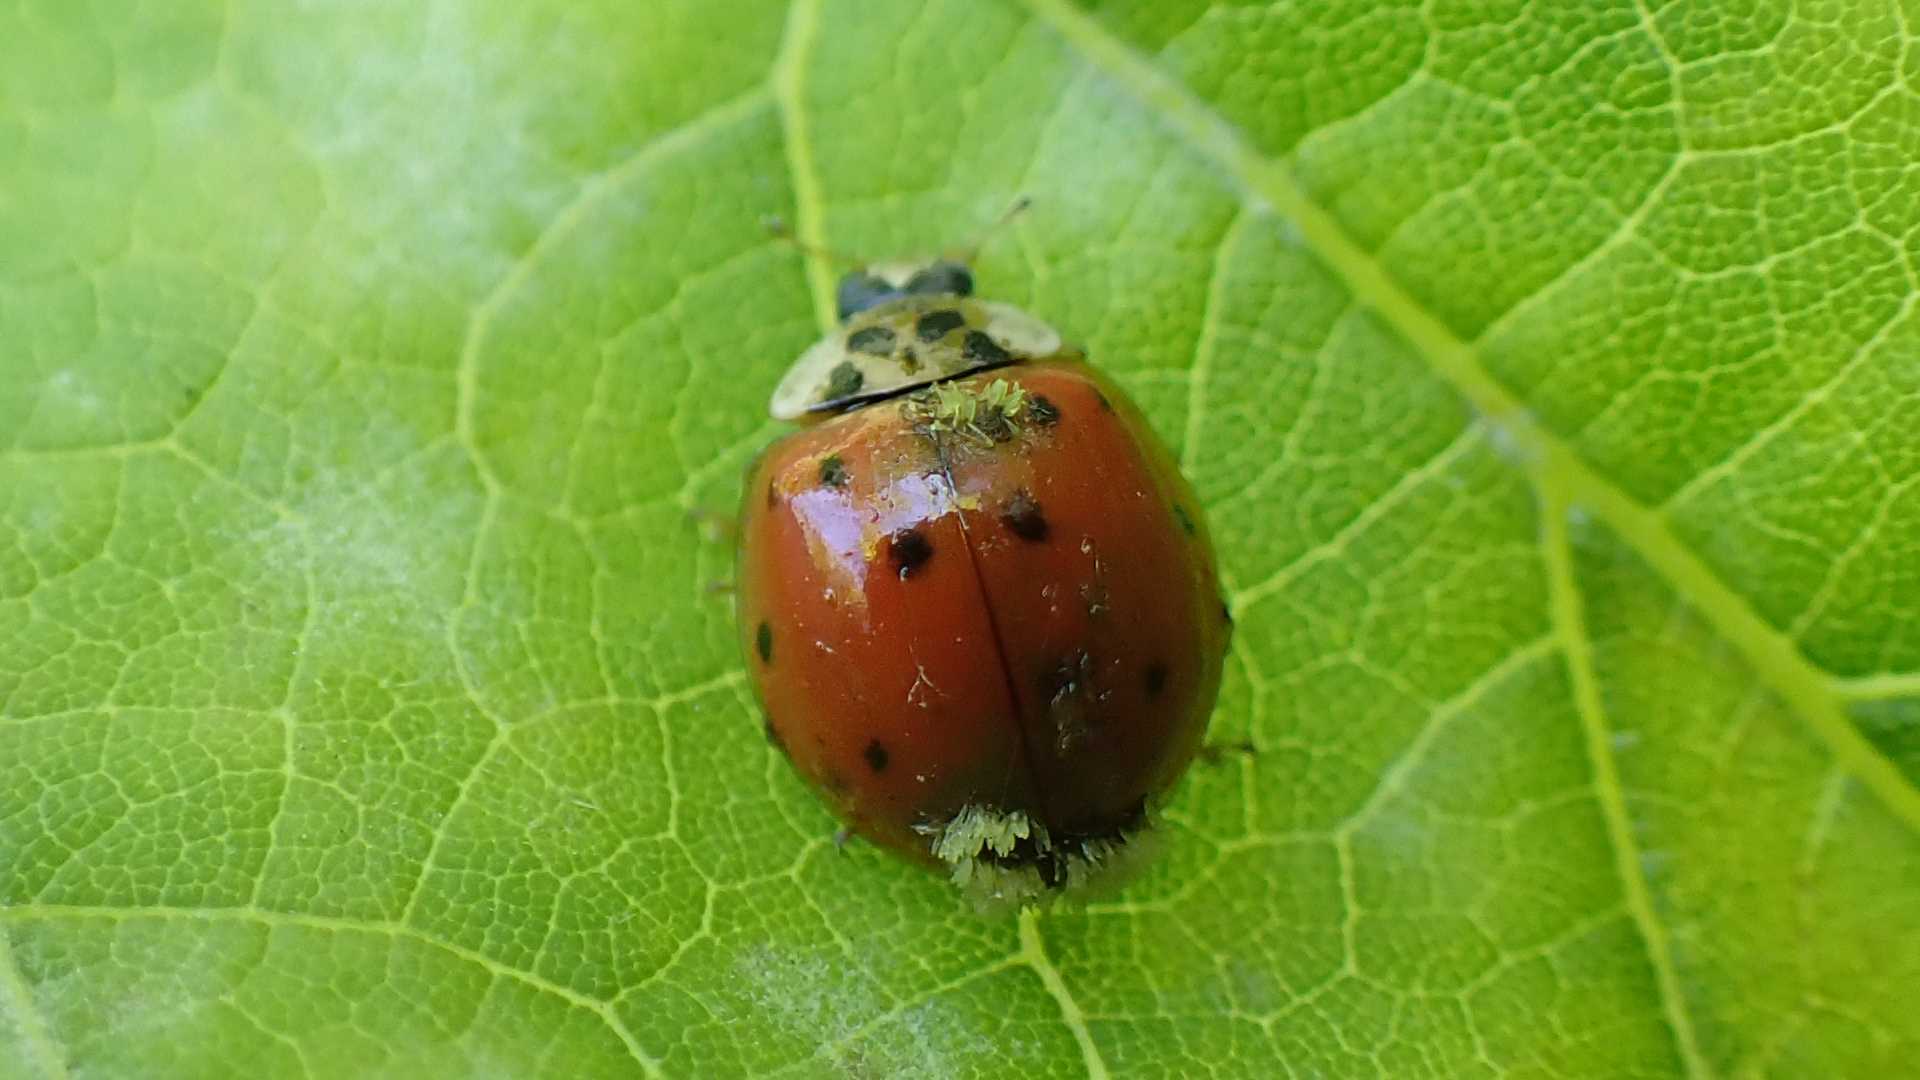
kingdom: Fungi
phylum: Ascomycota
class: Laboulbeniomycetes
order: Laboulbeniales
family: Laboulbeniaceae
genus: Hesperomyces
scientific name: Hesperomyces harmoniae
